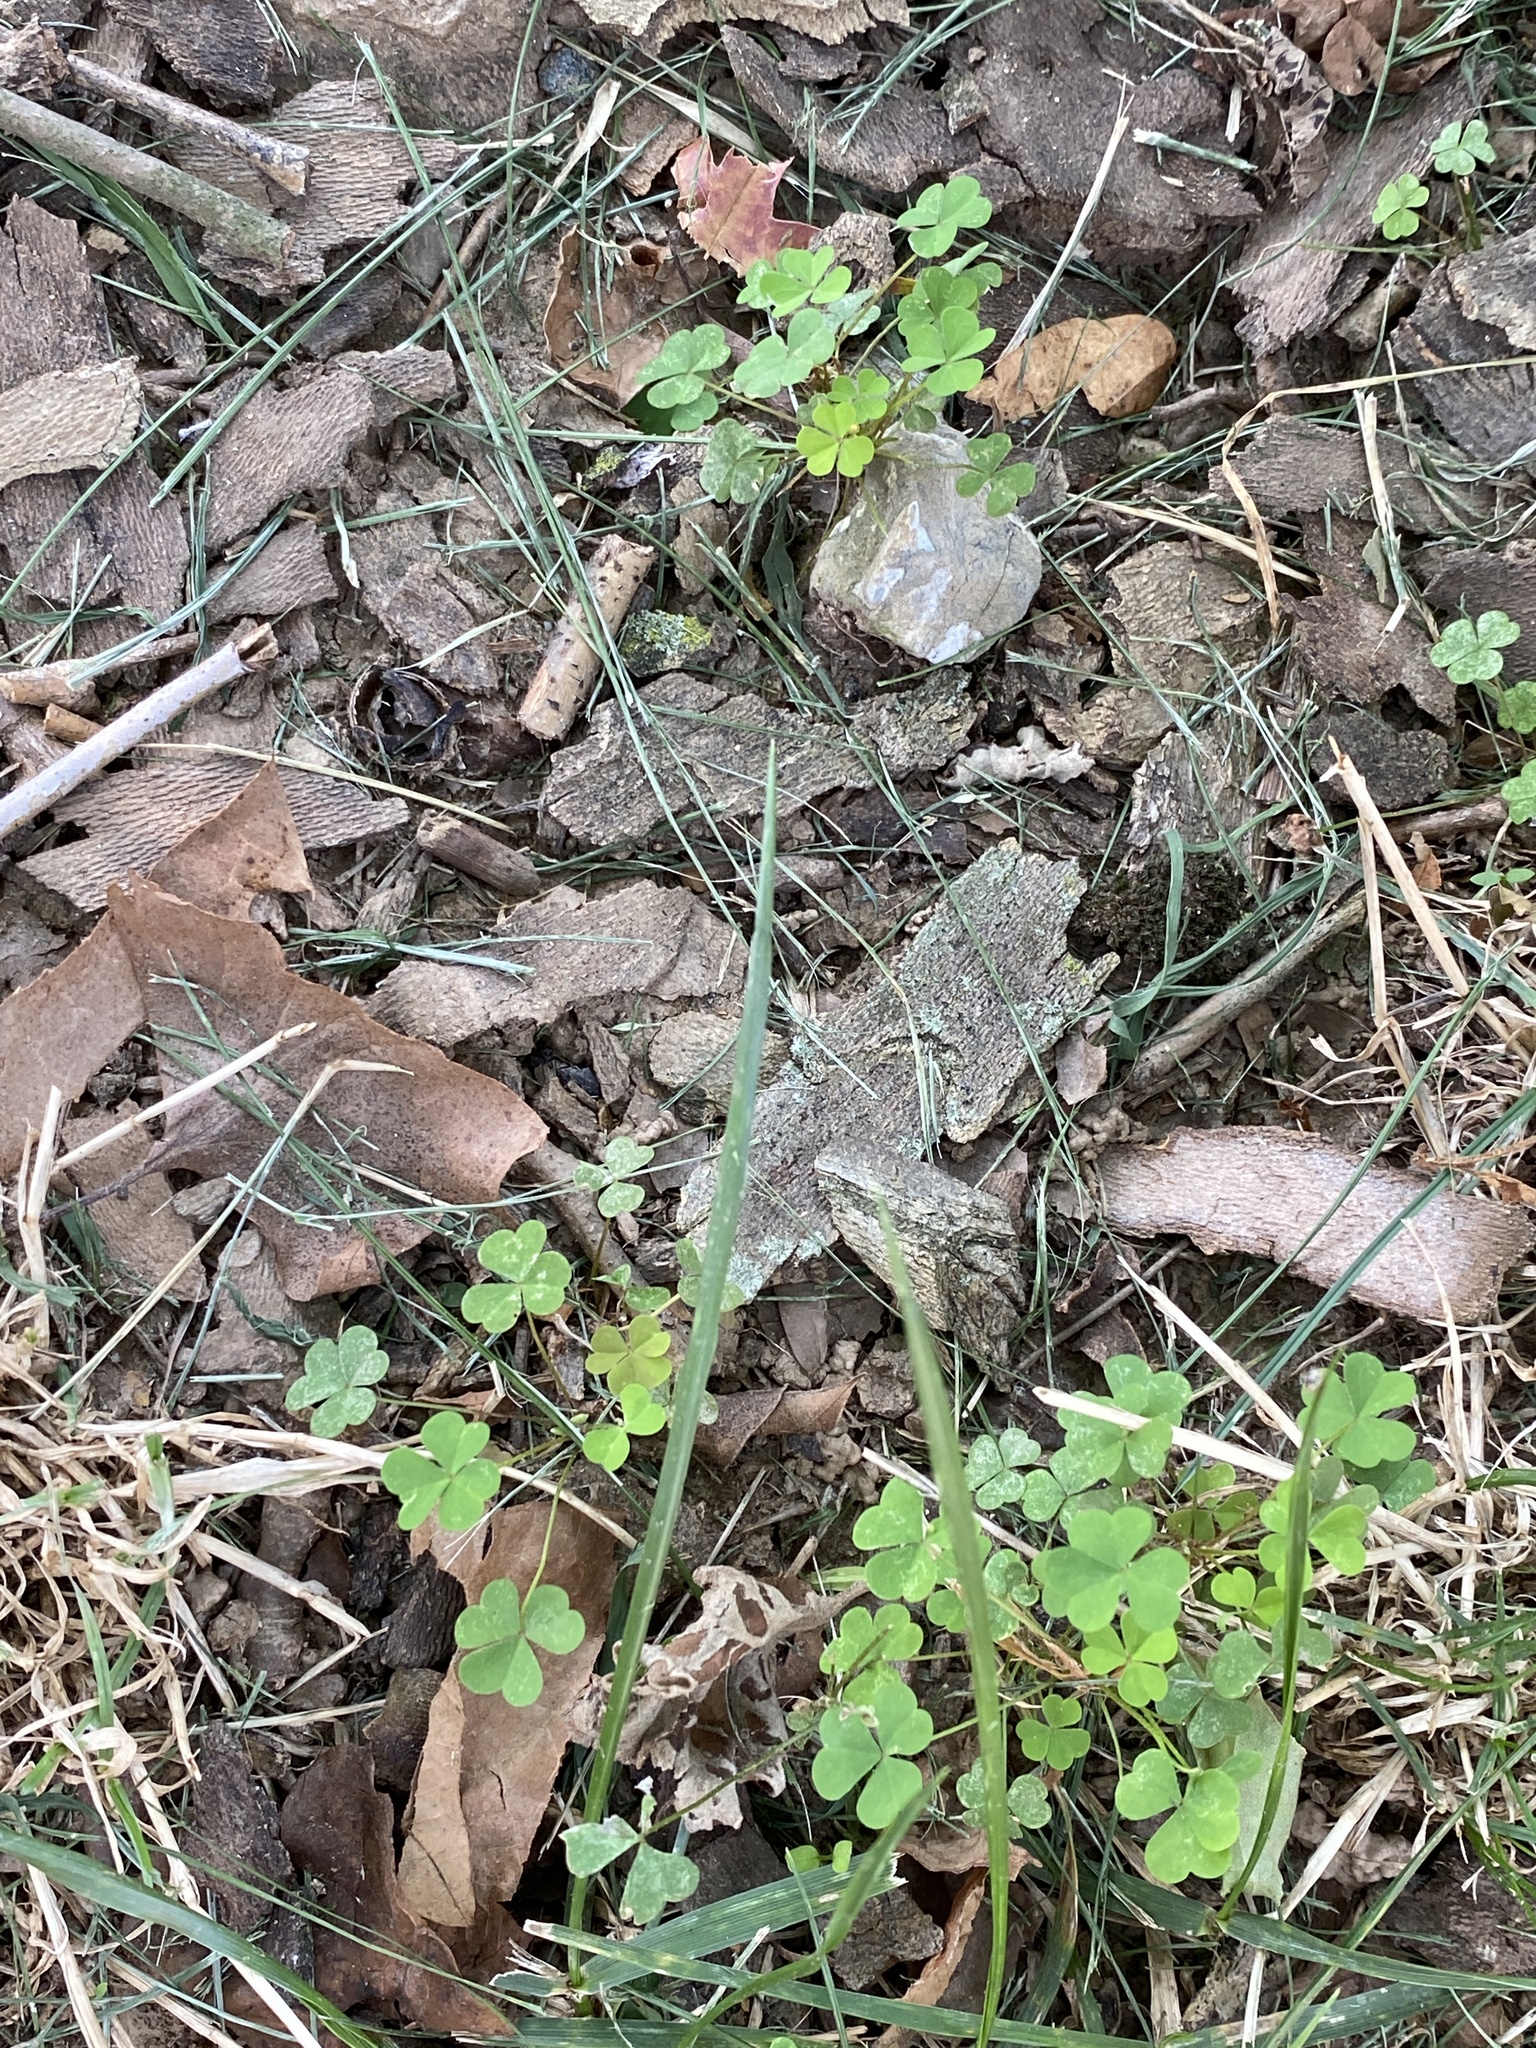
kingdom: Plantae
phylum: Tracheophyta
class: Magnoliopsida
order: Oxalidales
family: Oxalidaceae
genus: Oxalis
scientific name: Oxalis dillenii
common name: Sussex yellow-sorrel
